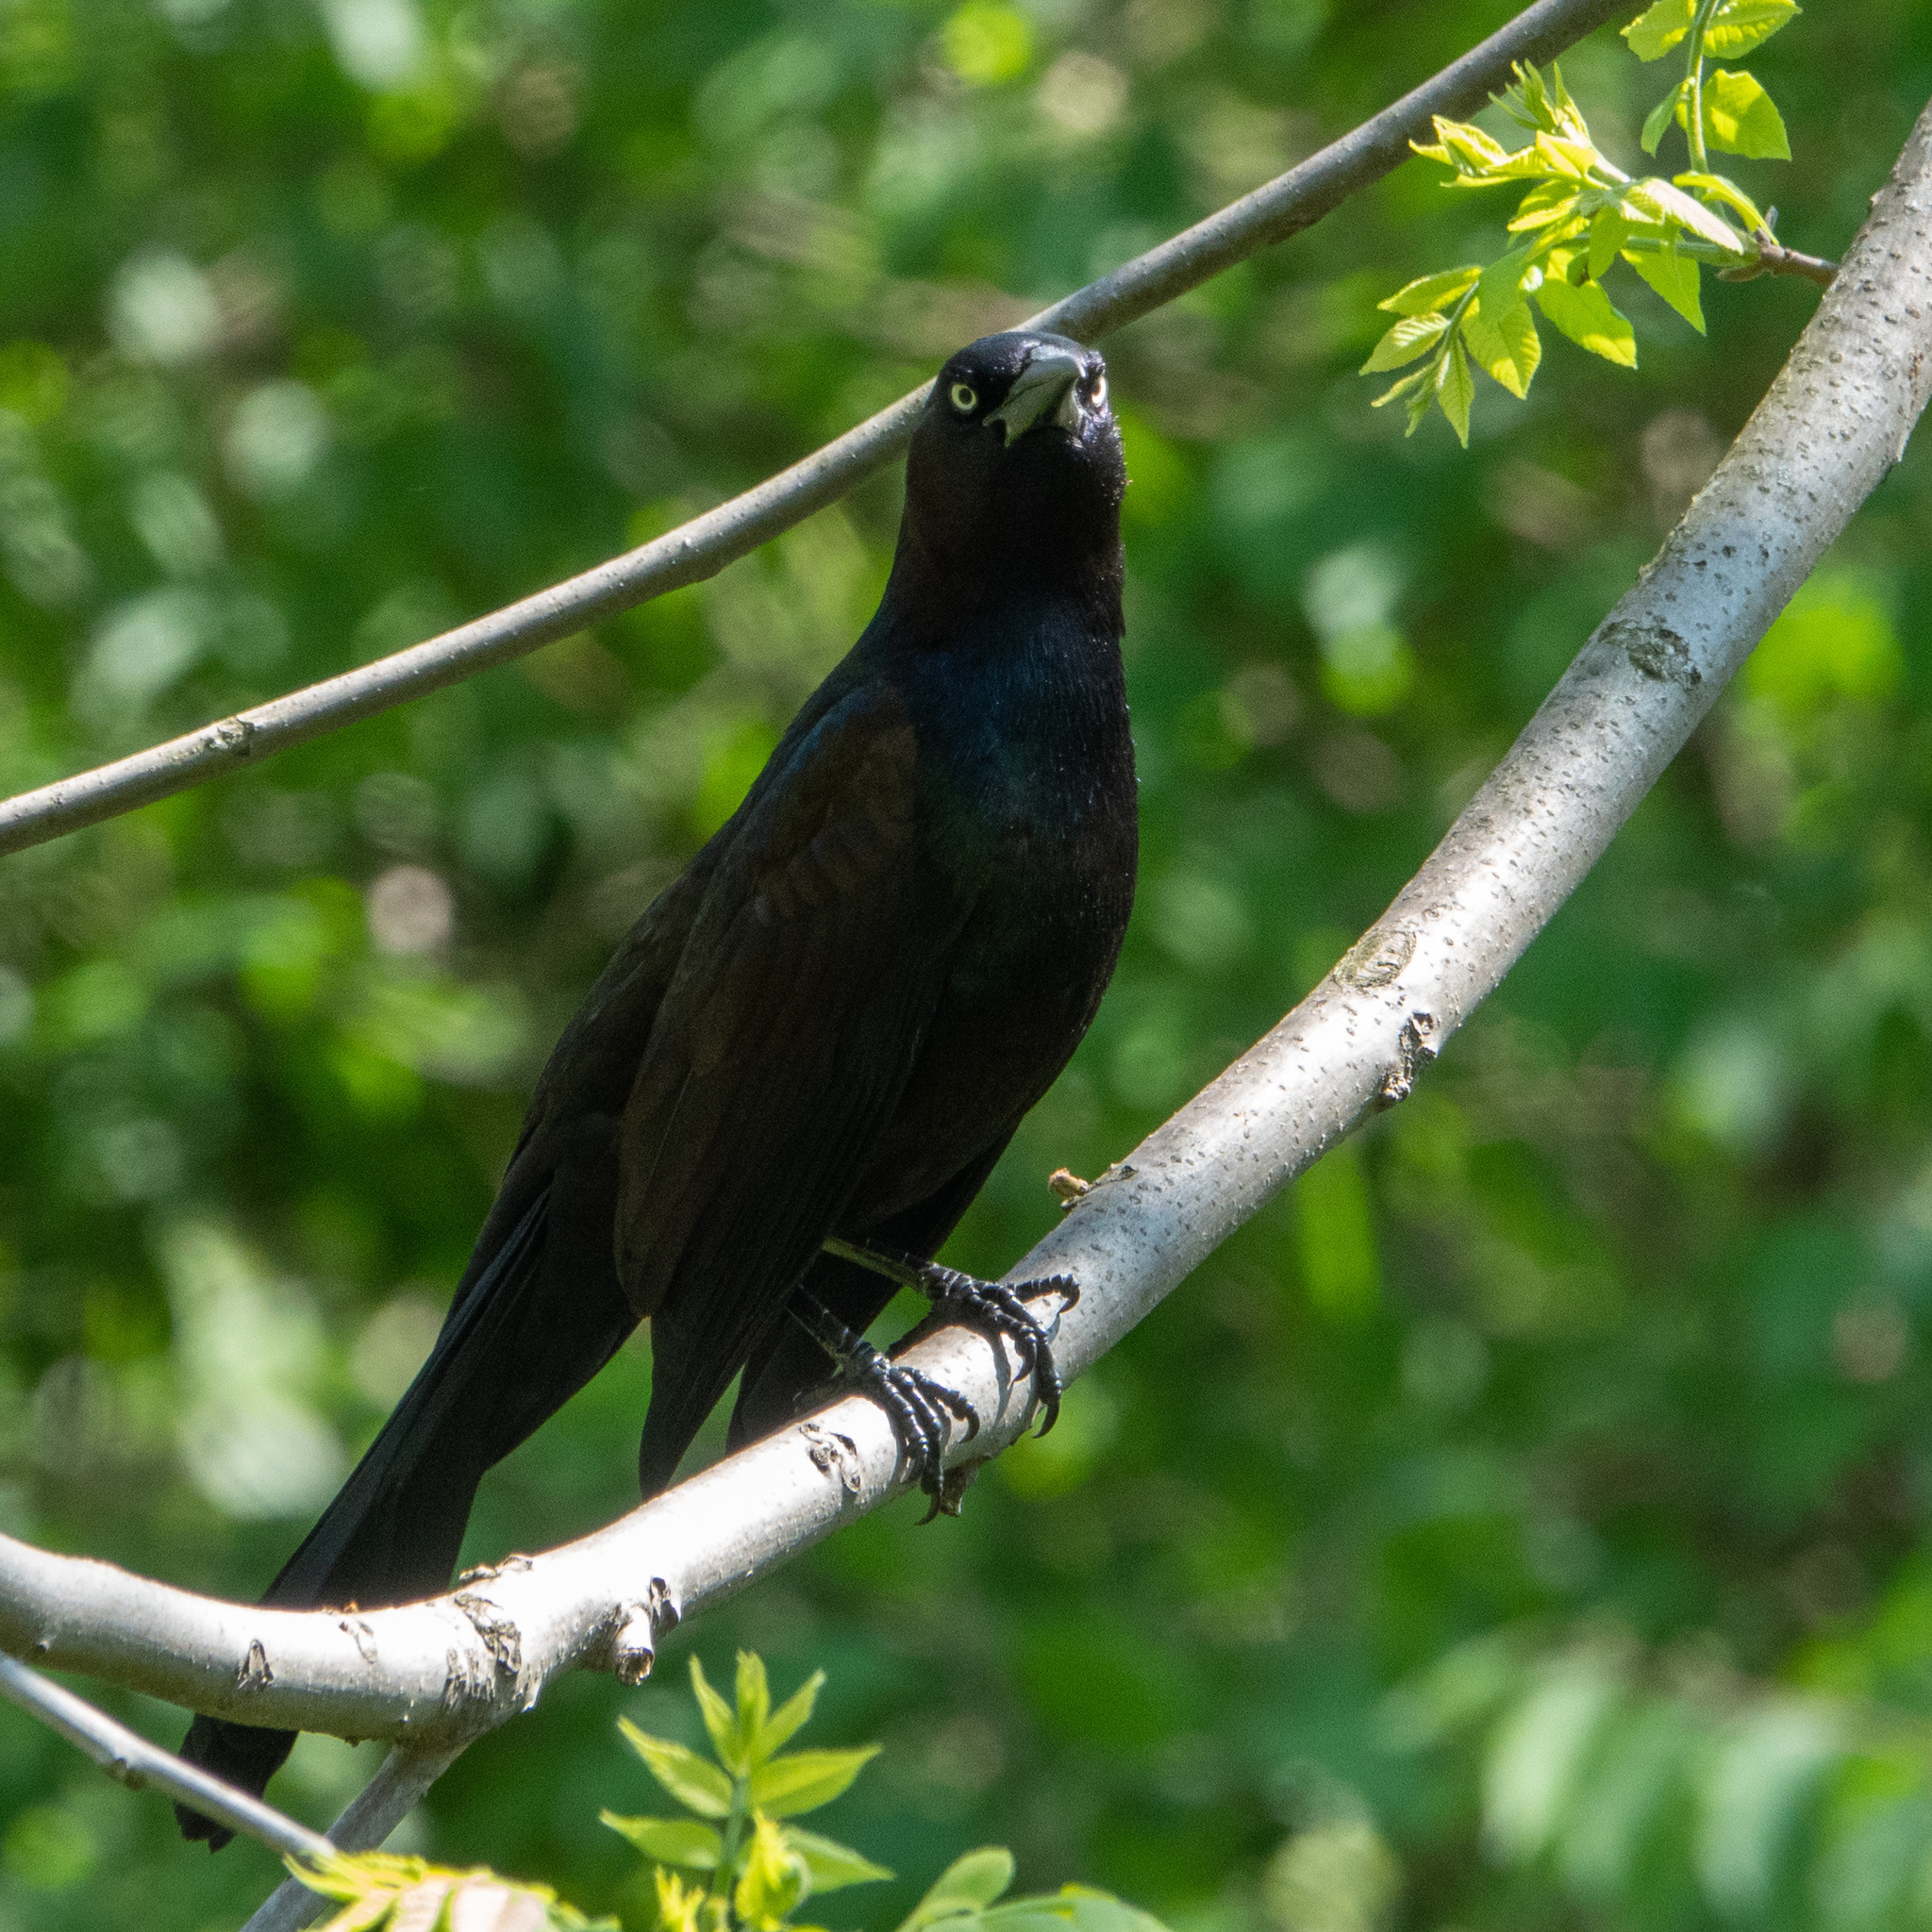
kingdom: Animalia
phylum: Chordata
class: Aves
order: Passeriformes
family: Icteridae
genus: Quiscalus
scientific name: Quiscalus quiscula
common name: Common grackle
